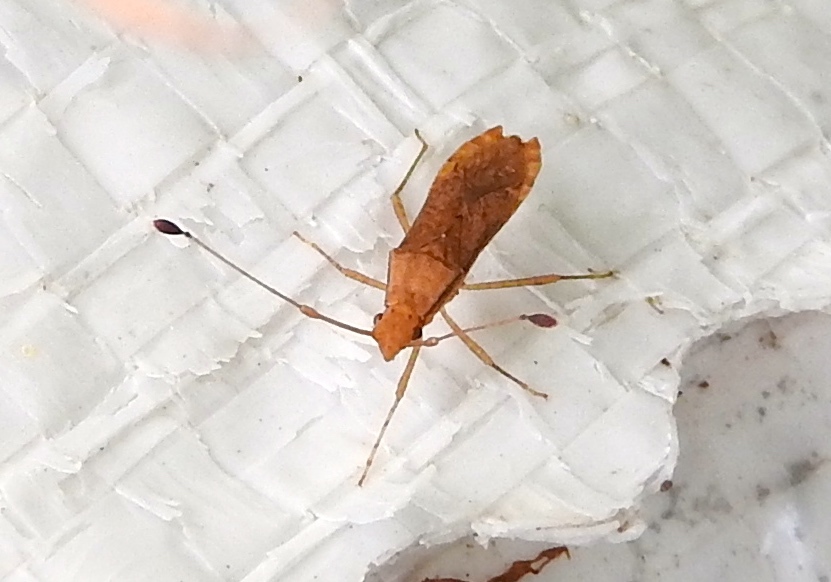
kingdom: Animalia
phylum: Arthropoda
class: Insecta
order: Hemiptera
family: Coreidae
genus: Madura
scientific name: Madura
